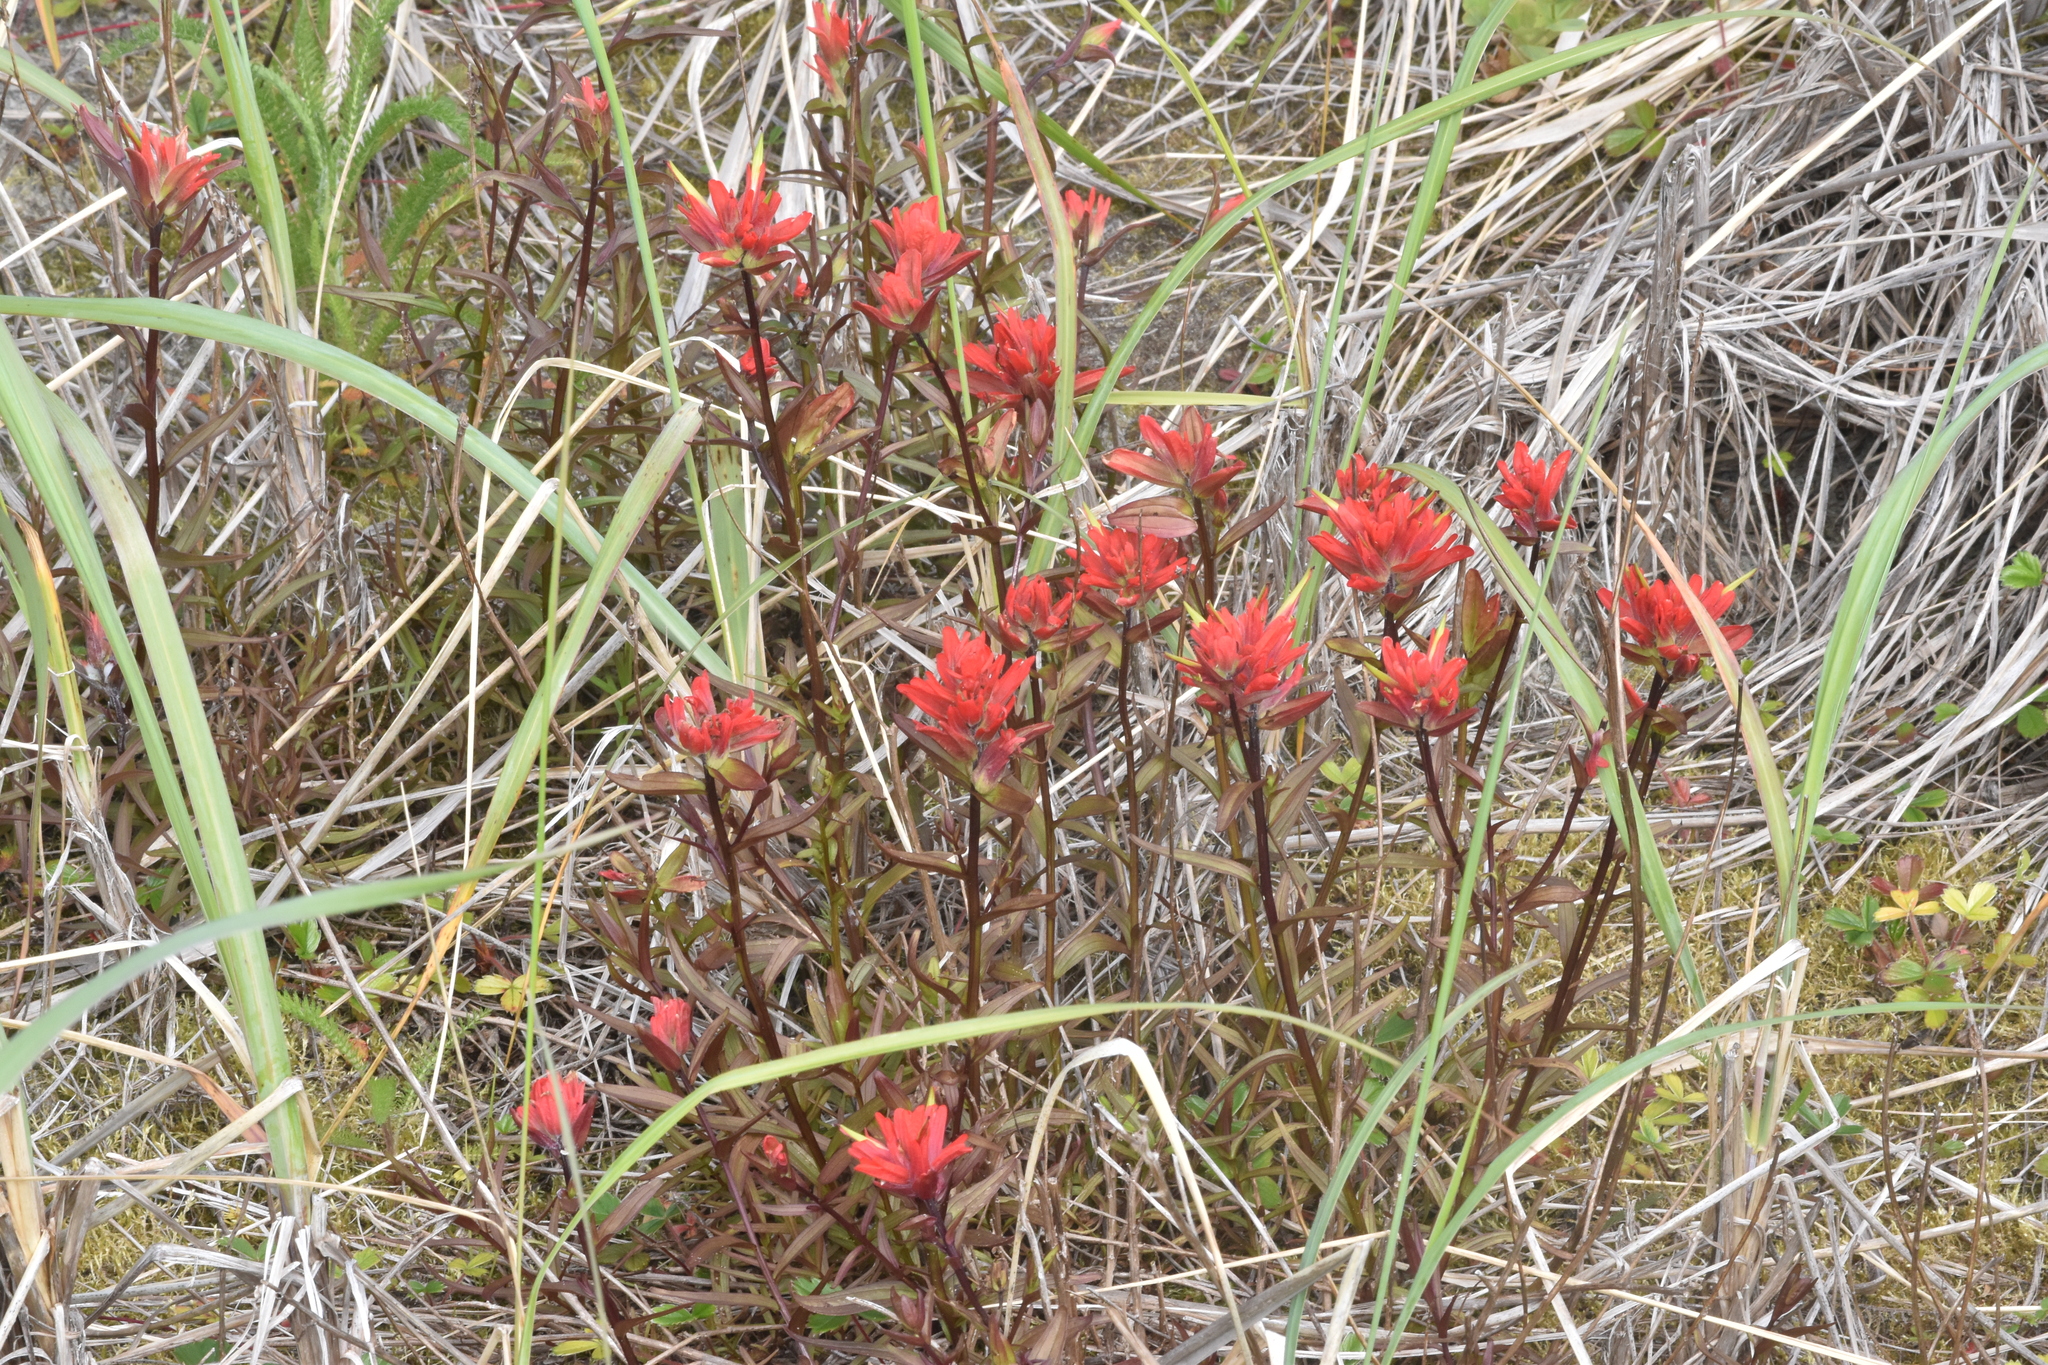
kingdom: Plantae
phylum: Tracheophyta
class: Magnoliopsida
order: Lamiales
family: Orobanchaceae
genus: Castilleja
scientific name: Castilleja miniata
